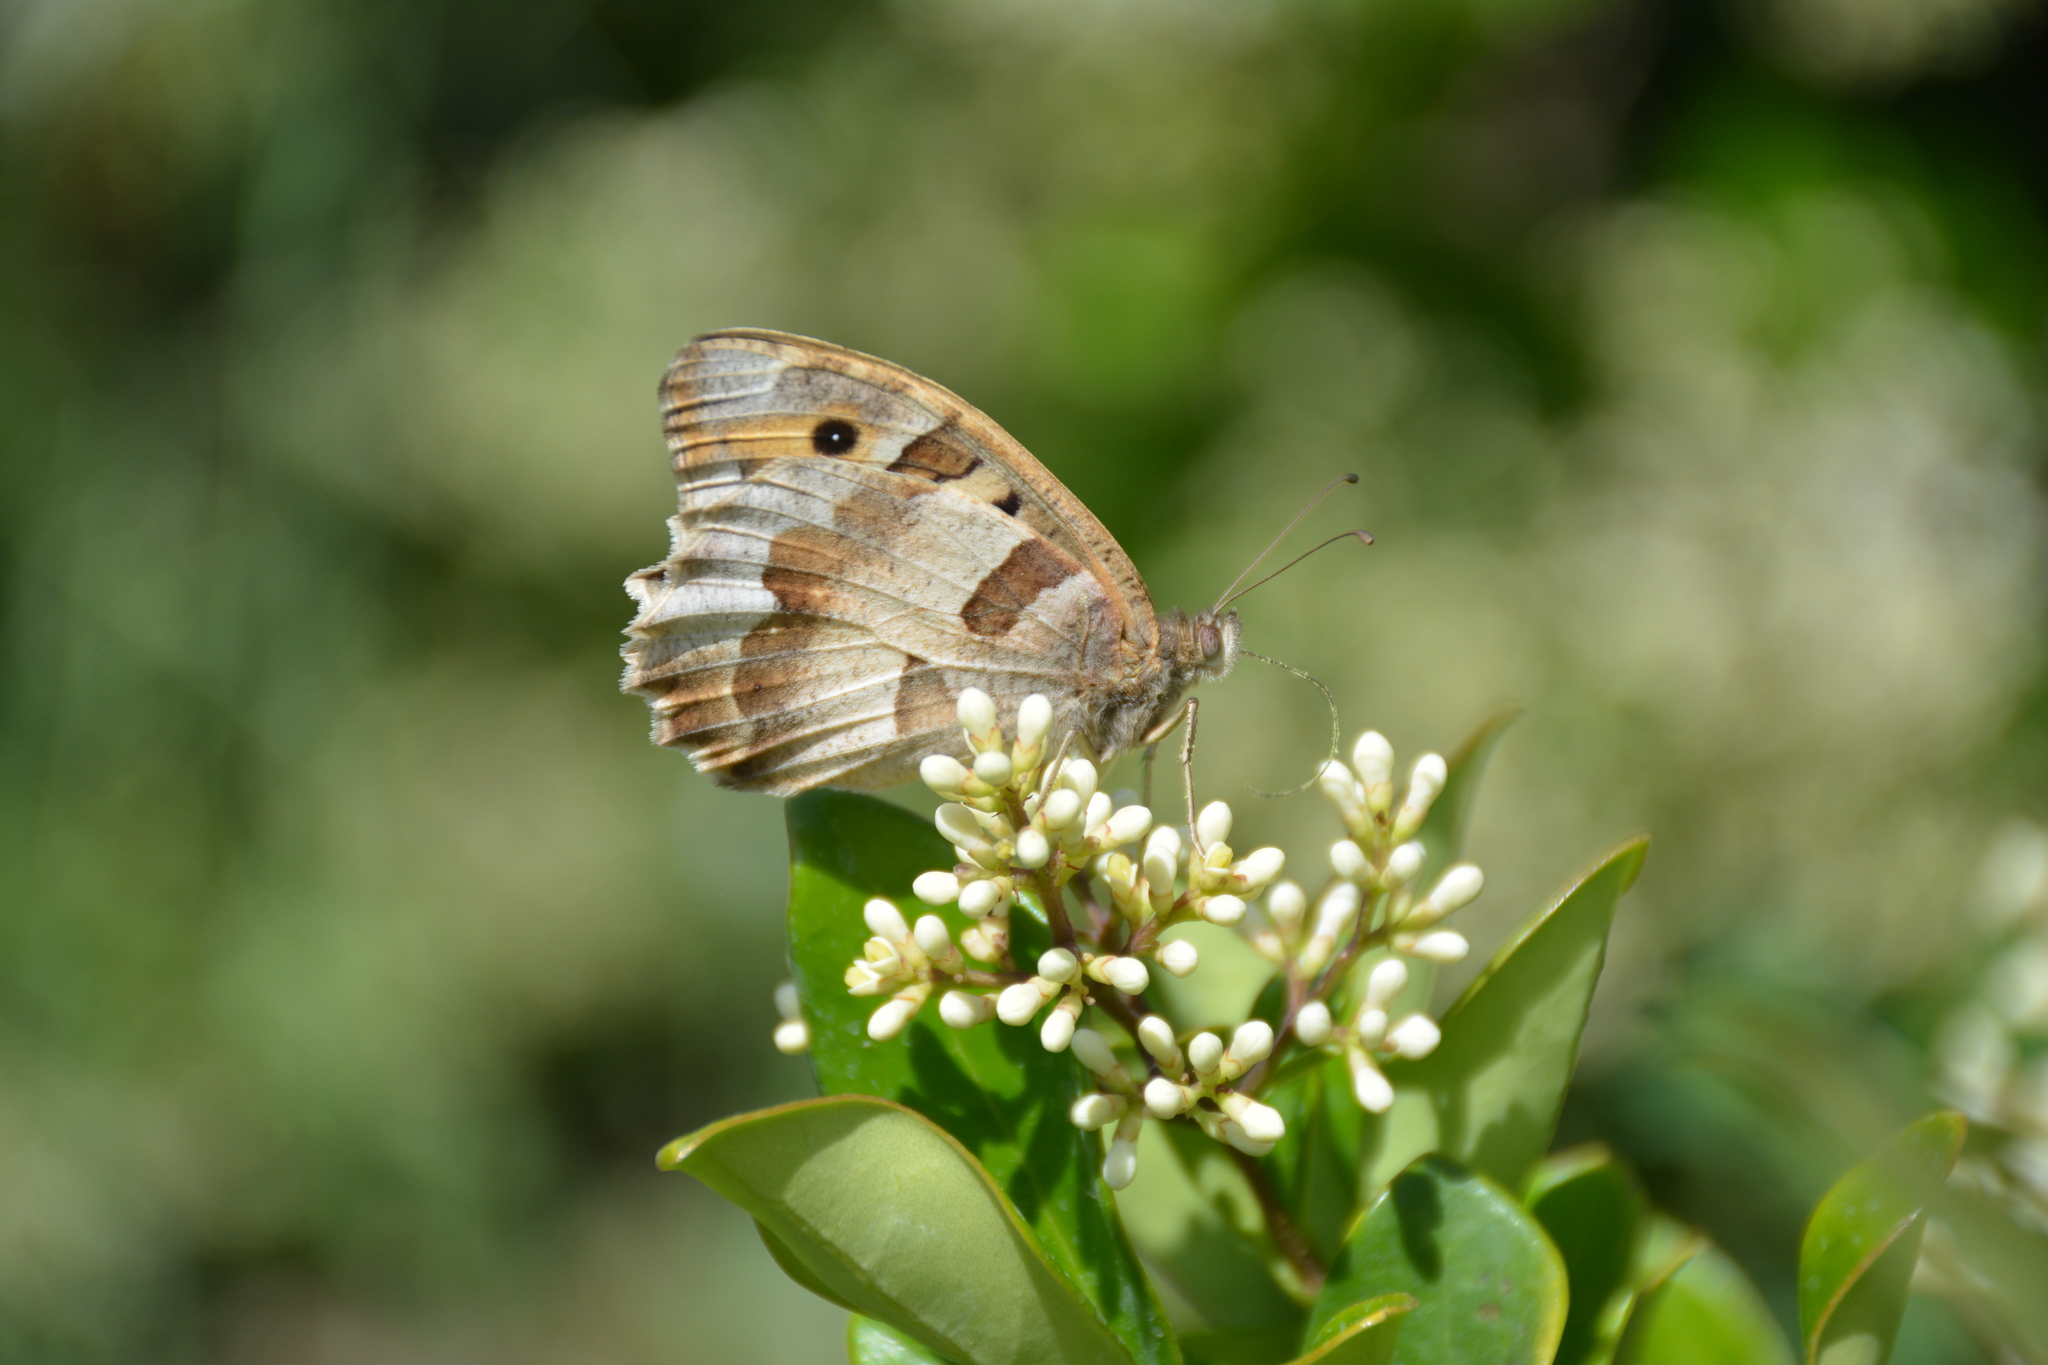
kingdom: Animalia
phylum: Arthropoda
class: Insecta
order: Lepidoptera
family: Nymphalidae
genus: Satyrus
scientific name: Satyrus briseis
